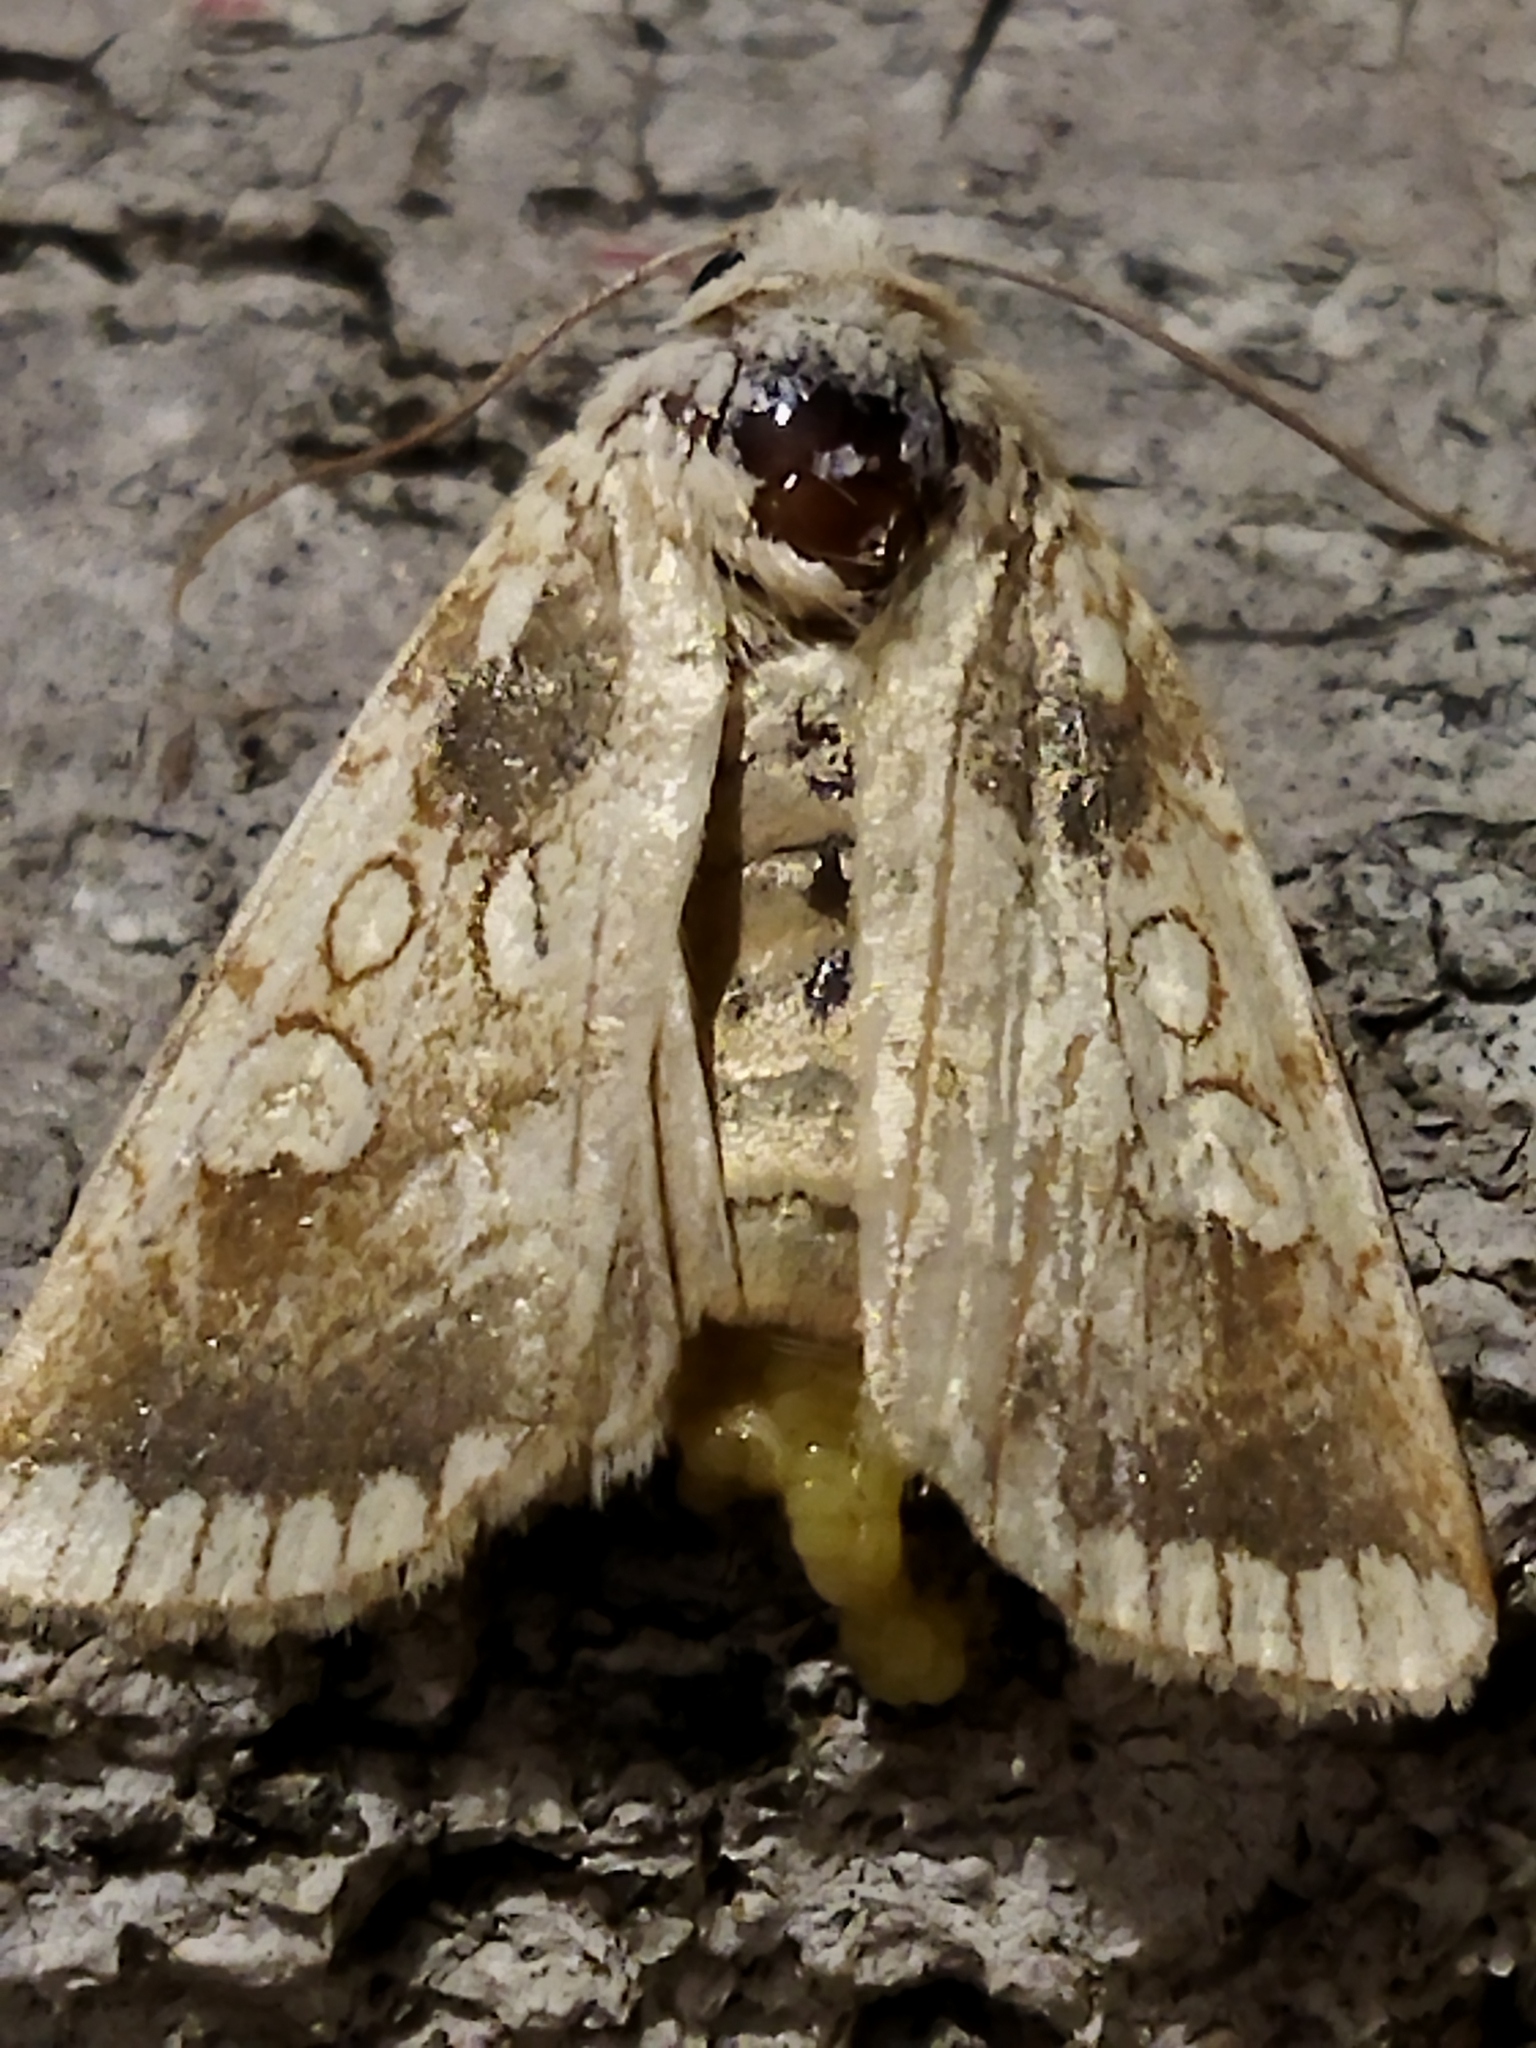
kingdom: Animalia
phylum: Arthropoda
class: Insecta
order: Lepidoptera
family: Noctuidae
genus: Dicycla
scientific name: Dicycla oo
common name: Heart moth
